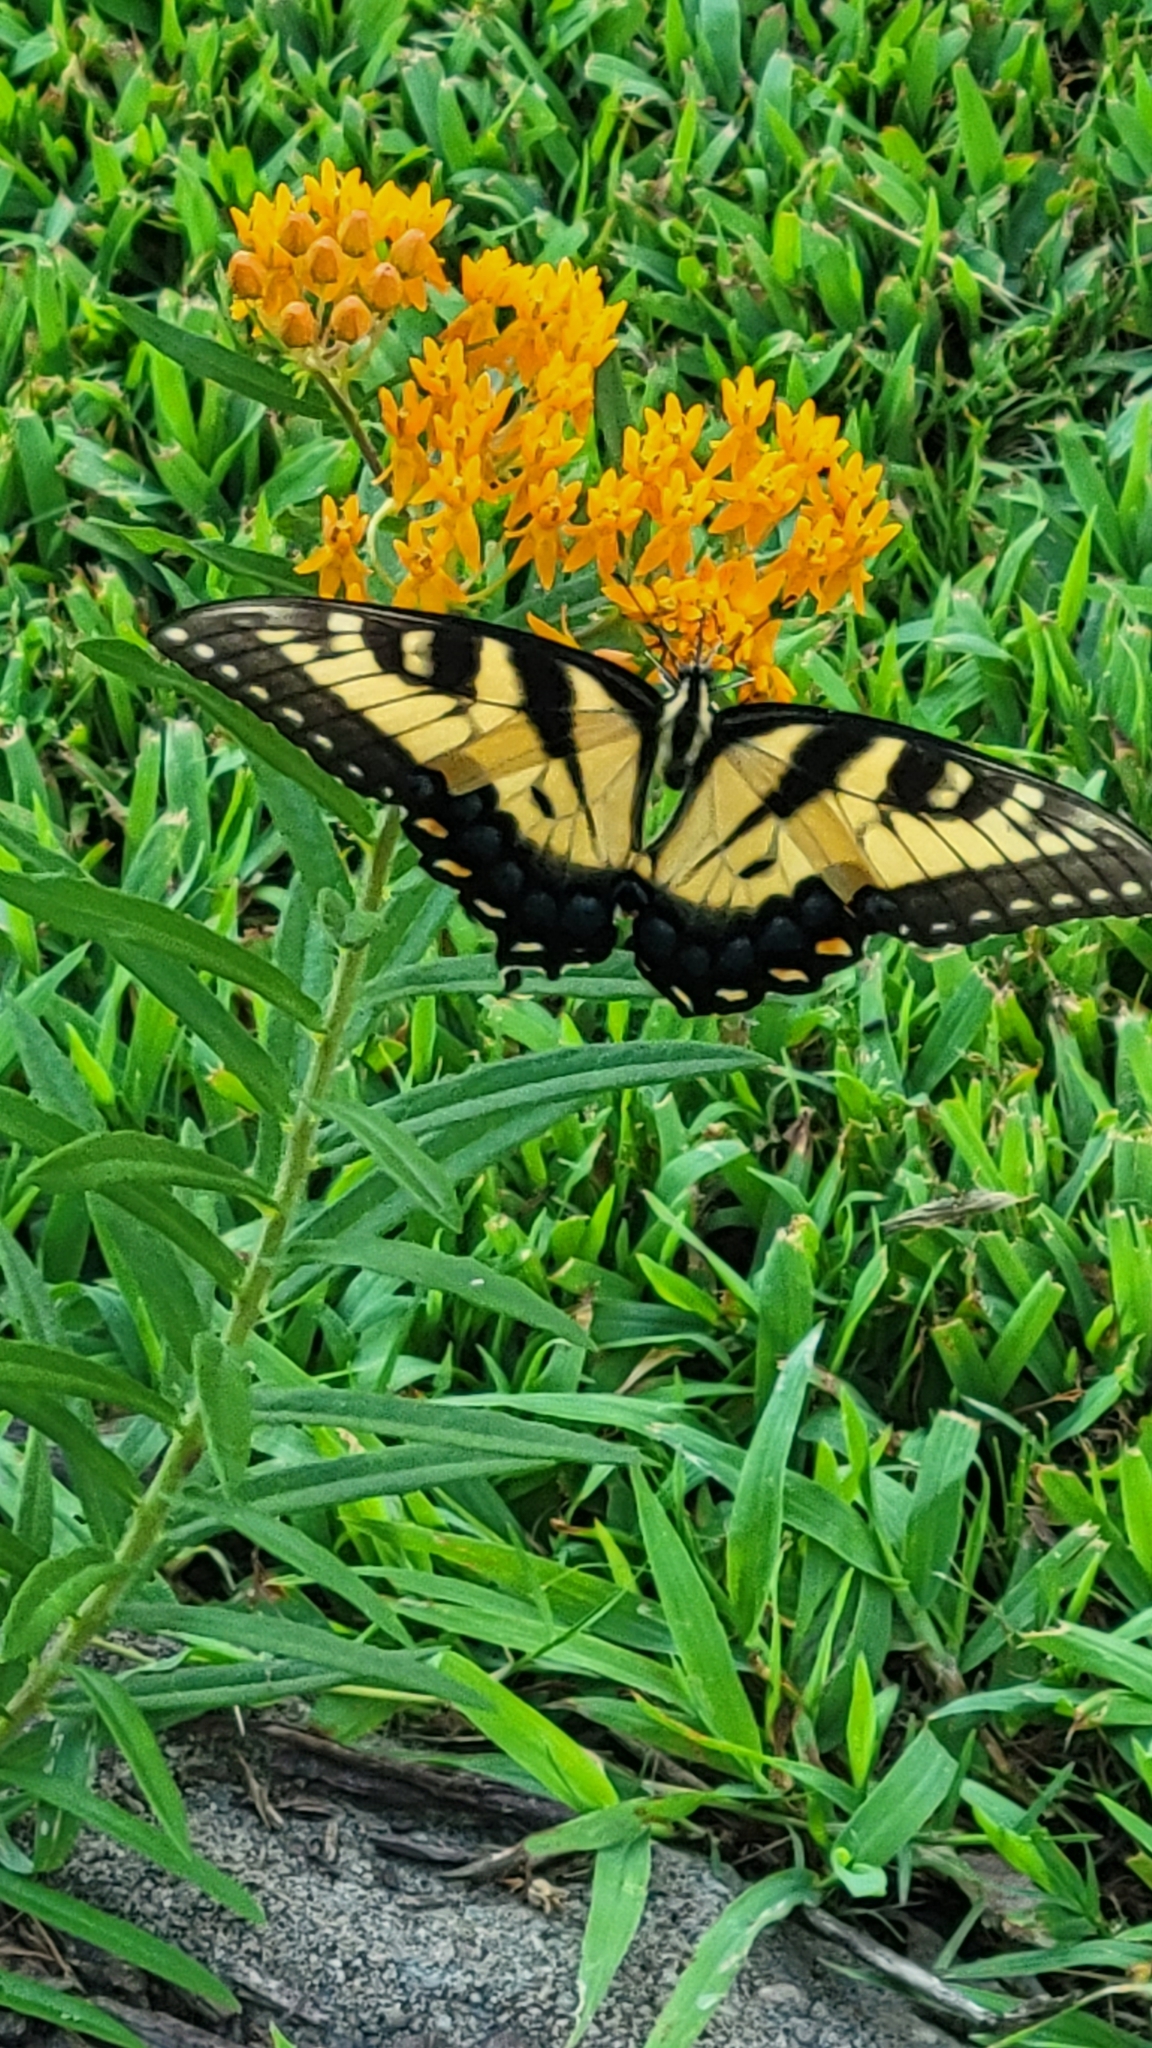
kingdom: Animalia
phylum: Arthropoda
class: Insecta
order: Lepidoptera
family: Papilionidae
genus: Papilio
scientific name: Papilio glaucus
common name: Tiger swallowtail
